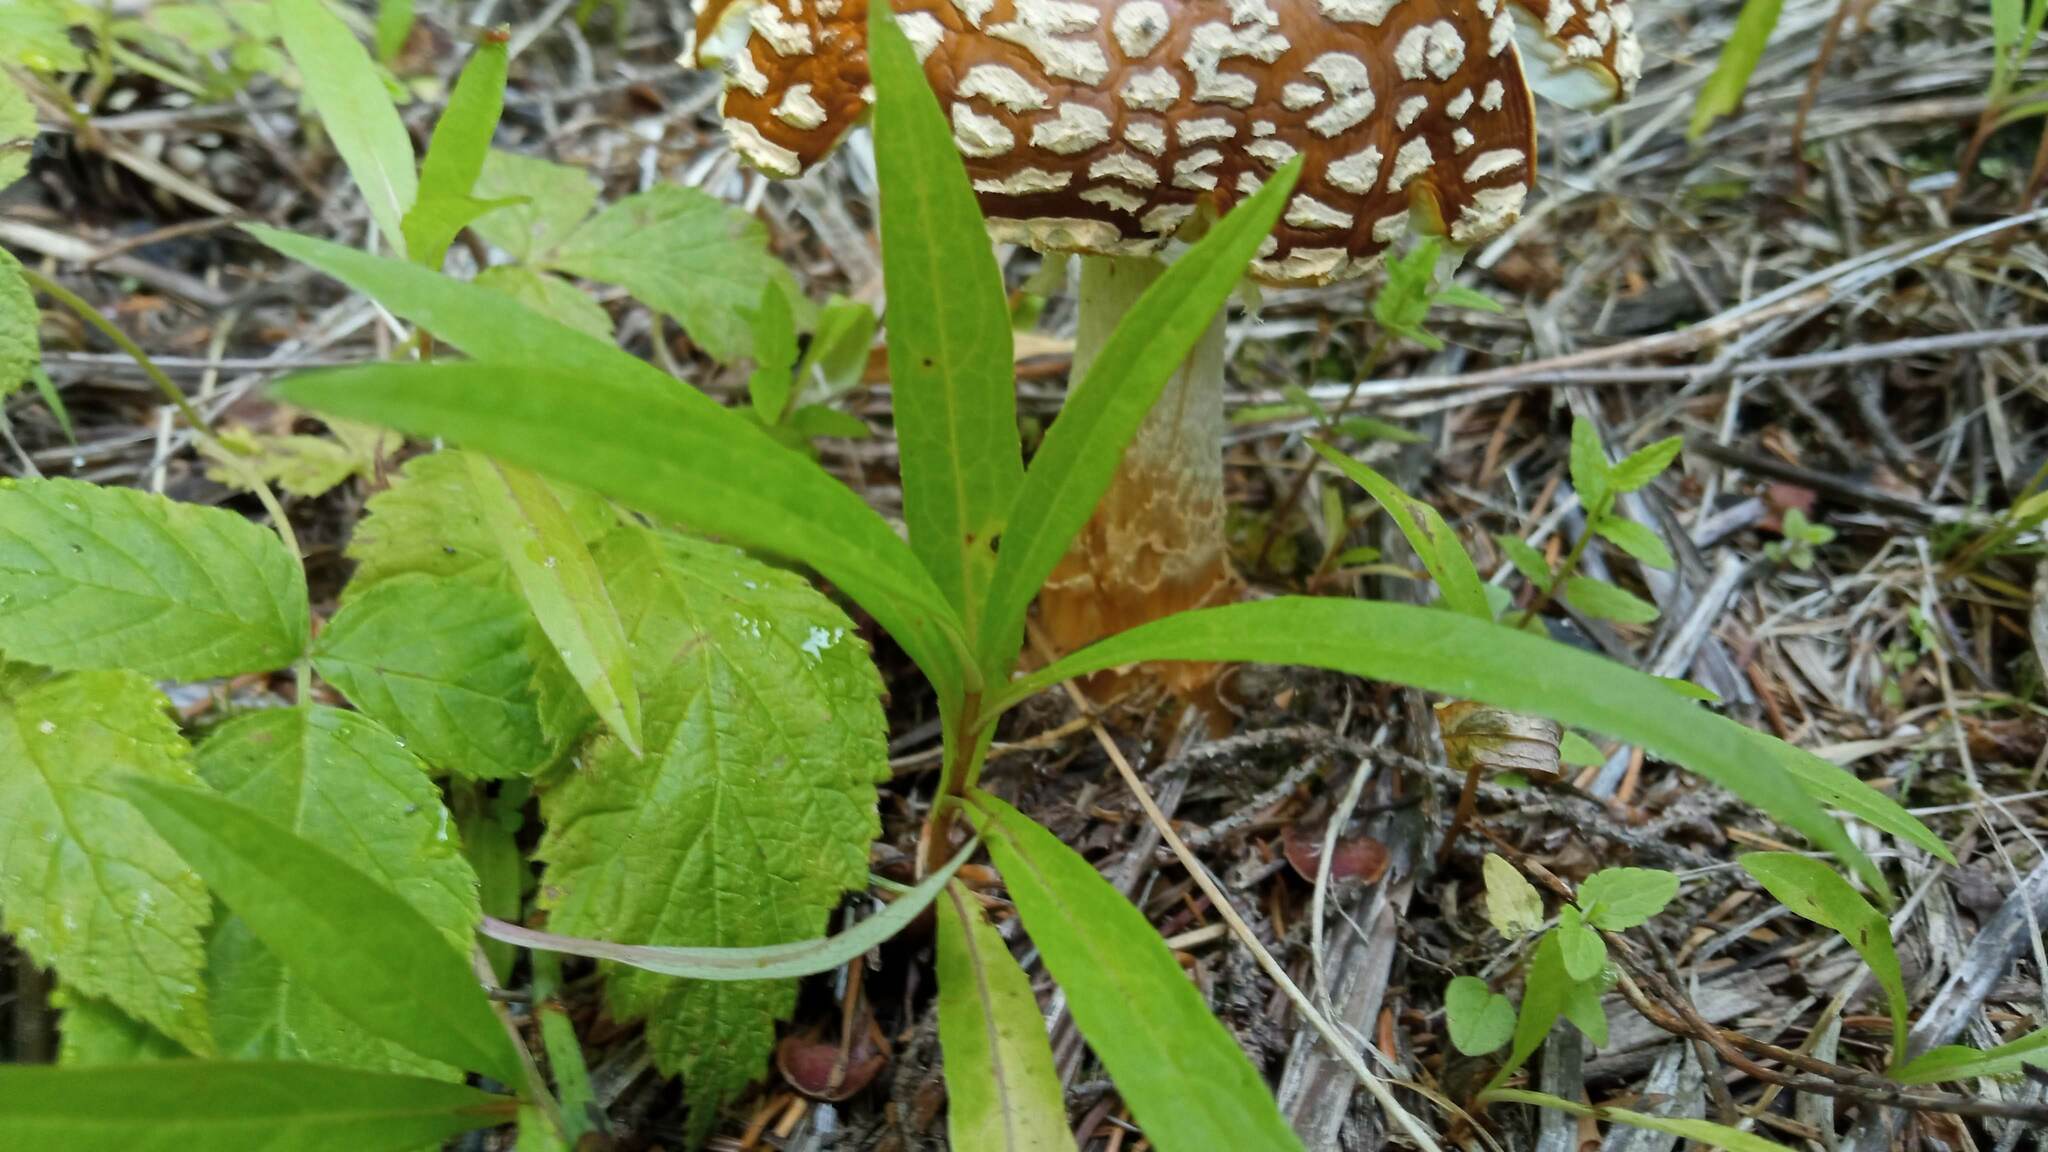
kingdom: Fungi
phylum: Basidiomycota
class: Agaricomycetes
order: Agaricales
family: Amanitaceae
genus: Amanita
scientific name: Amanita regalis
